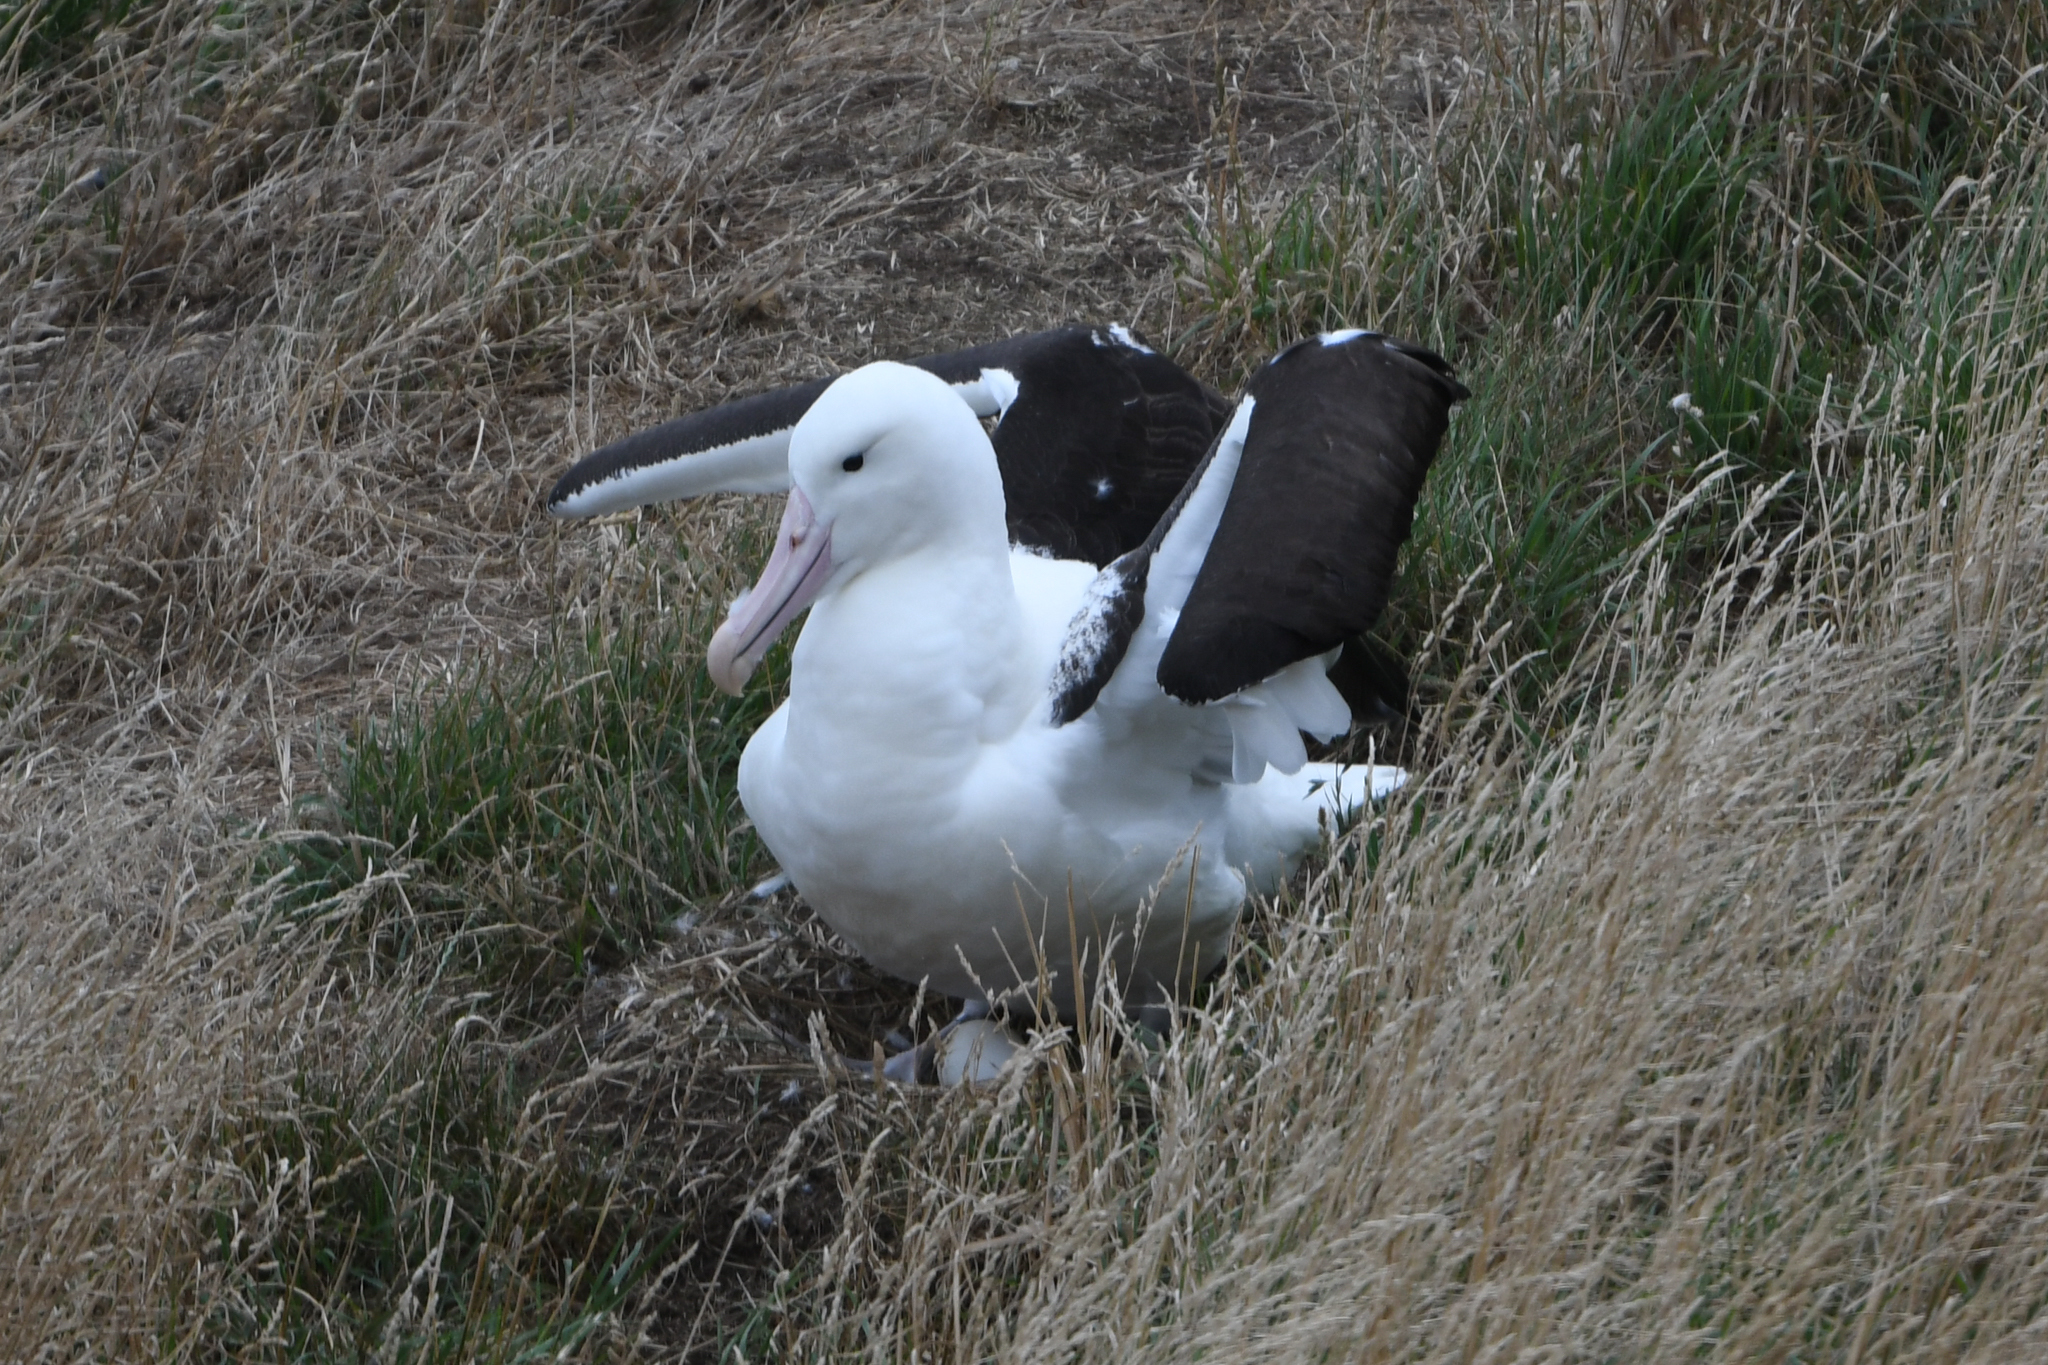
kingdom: Animalia
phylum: Chordata
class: Aves
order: Procellariiformes
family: Diomedeidae
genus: Diomedea
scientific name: Diomedea sanfordi
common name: Northern royal albatross
